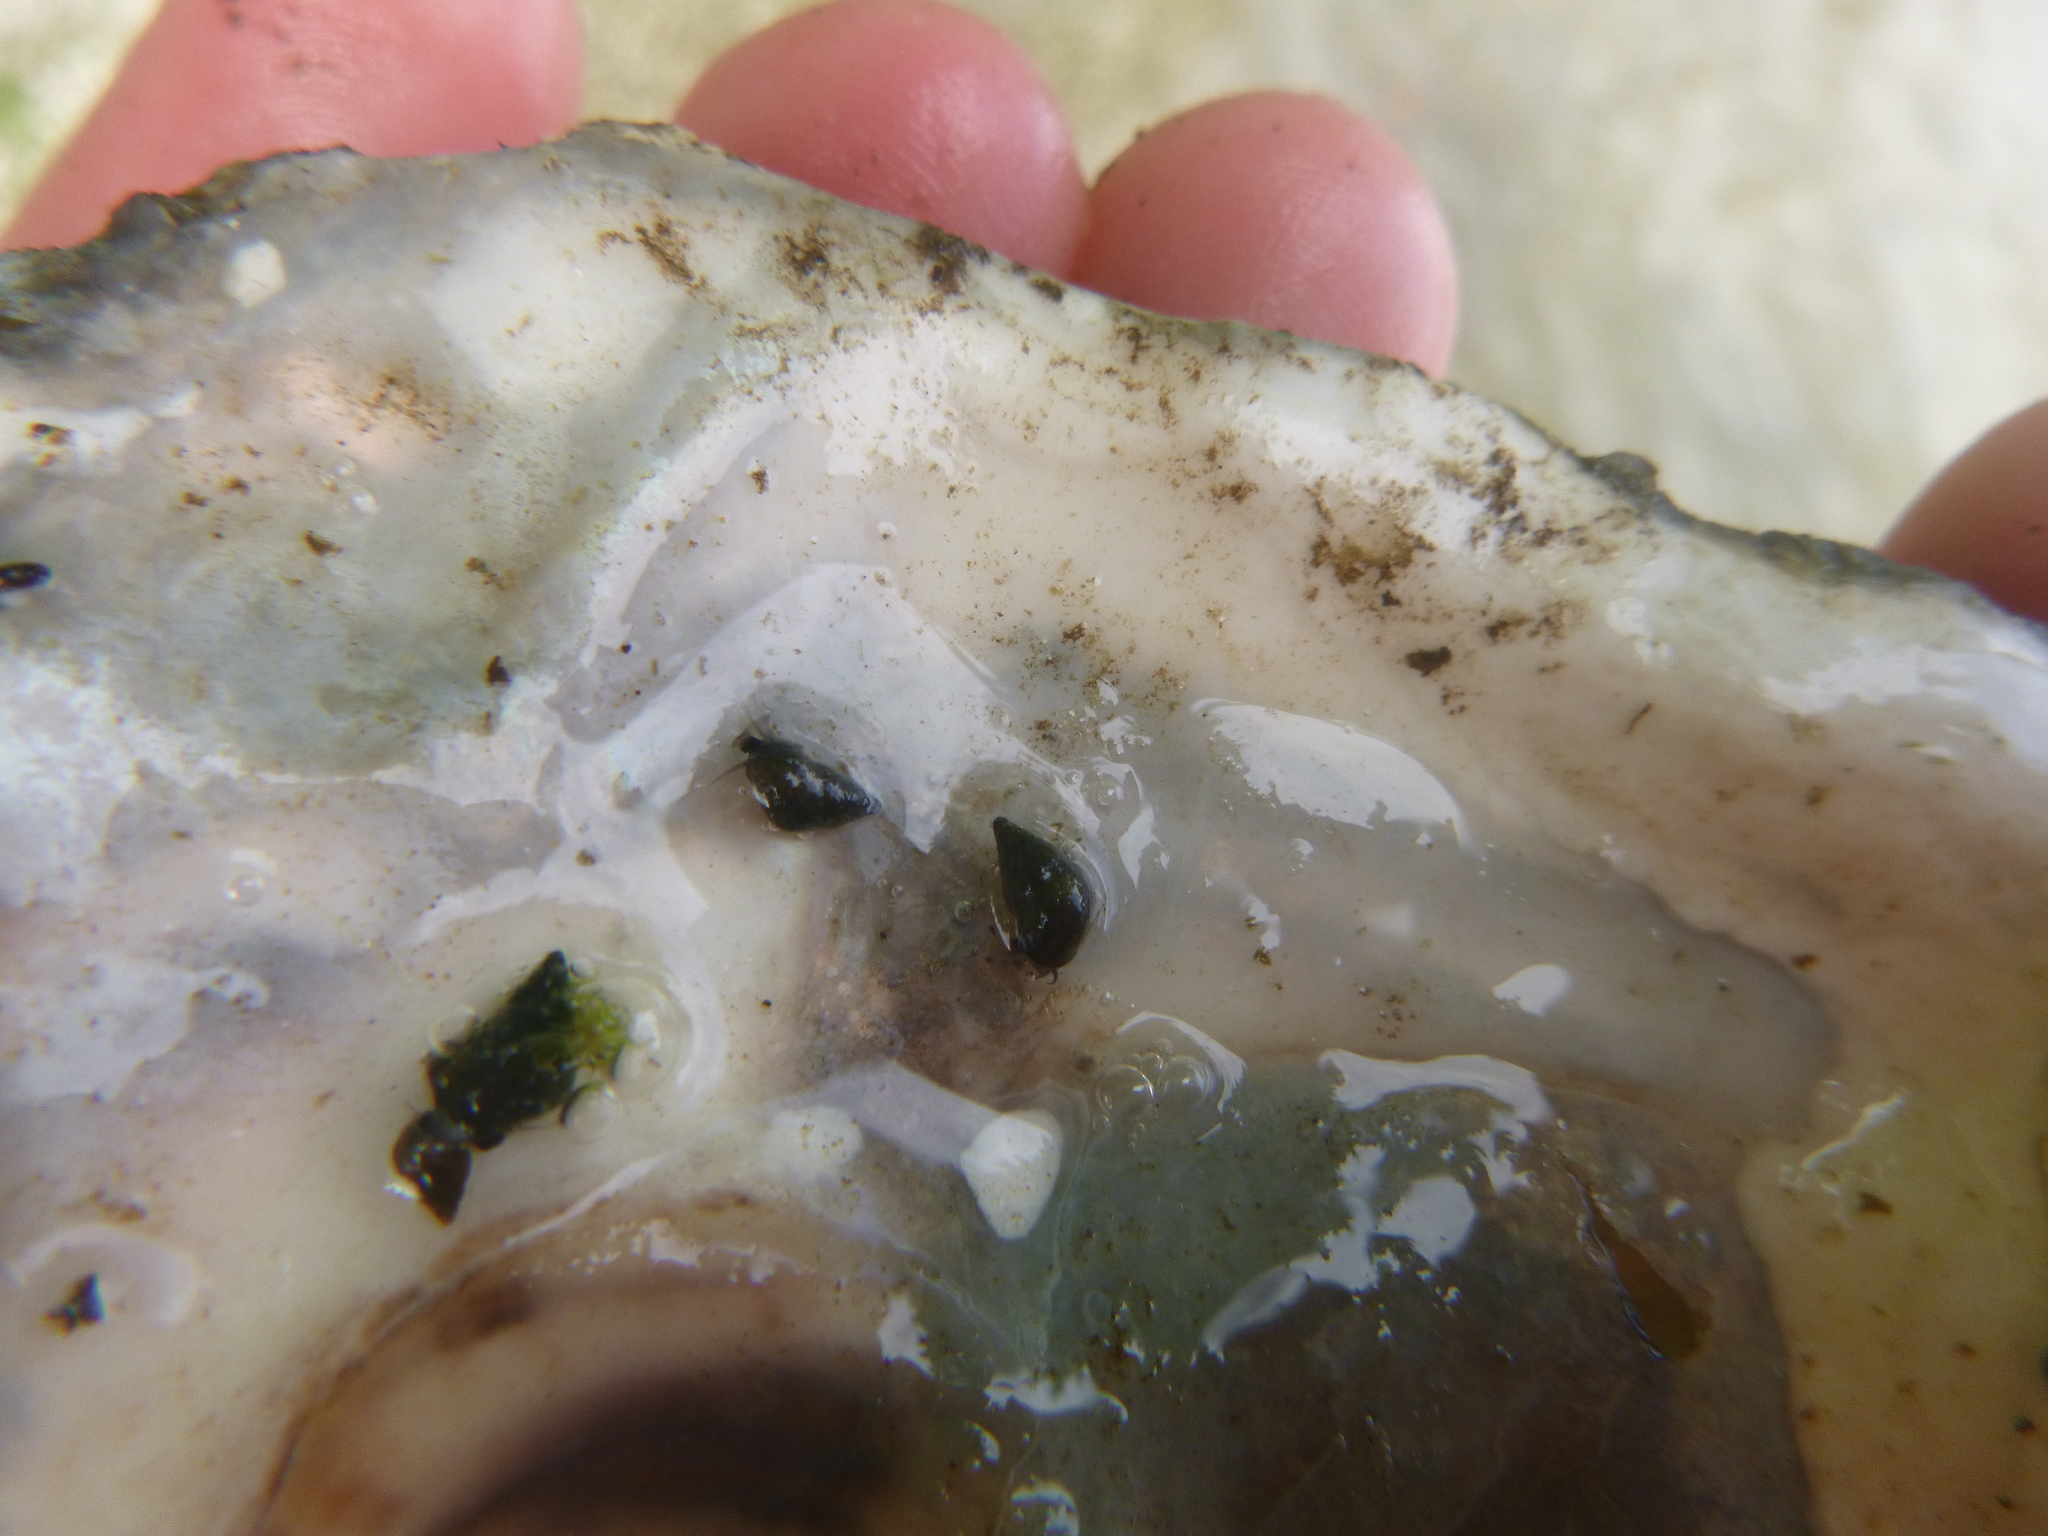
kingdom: Animalia
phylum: Mollusca
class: Gastropoda
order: Littorinimorpha
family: Tateidae
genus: Potamopyrgus
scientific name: Potamopyrgus estuarinus
